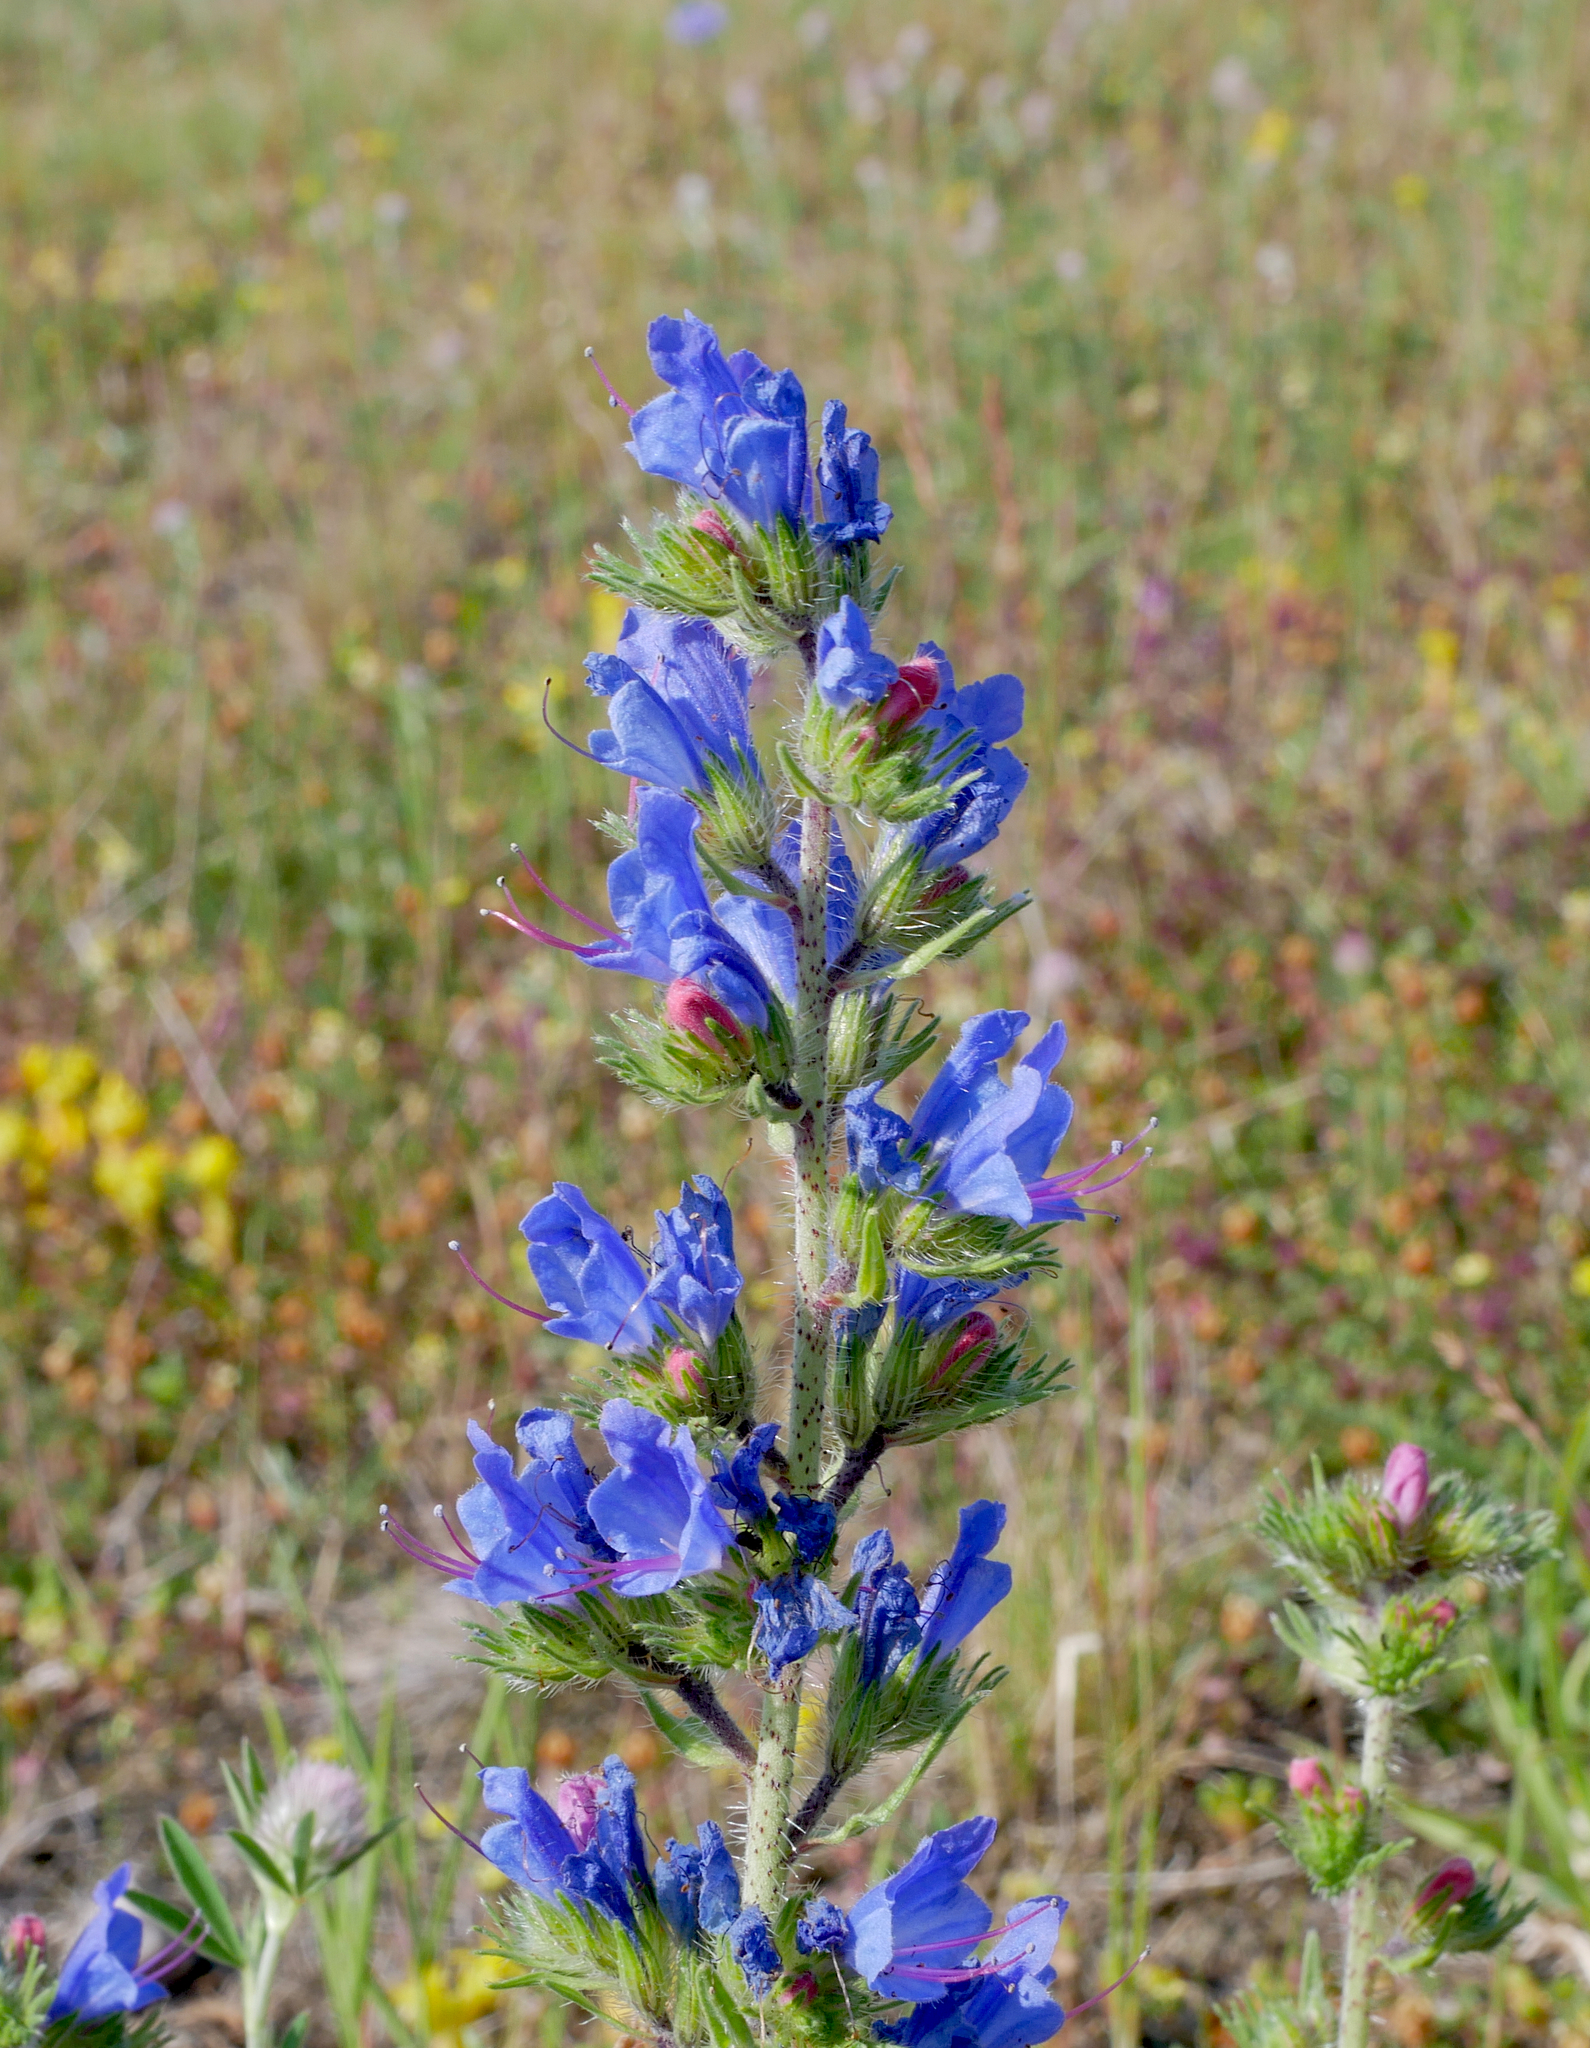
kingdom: Plantae
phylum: Tracheophyta
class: Magnoliopsida
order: Boraginales
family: Boraginaceae
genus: Echium
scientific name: Echium vulgare
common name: Common viper's bugloss
